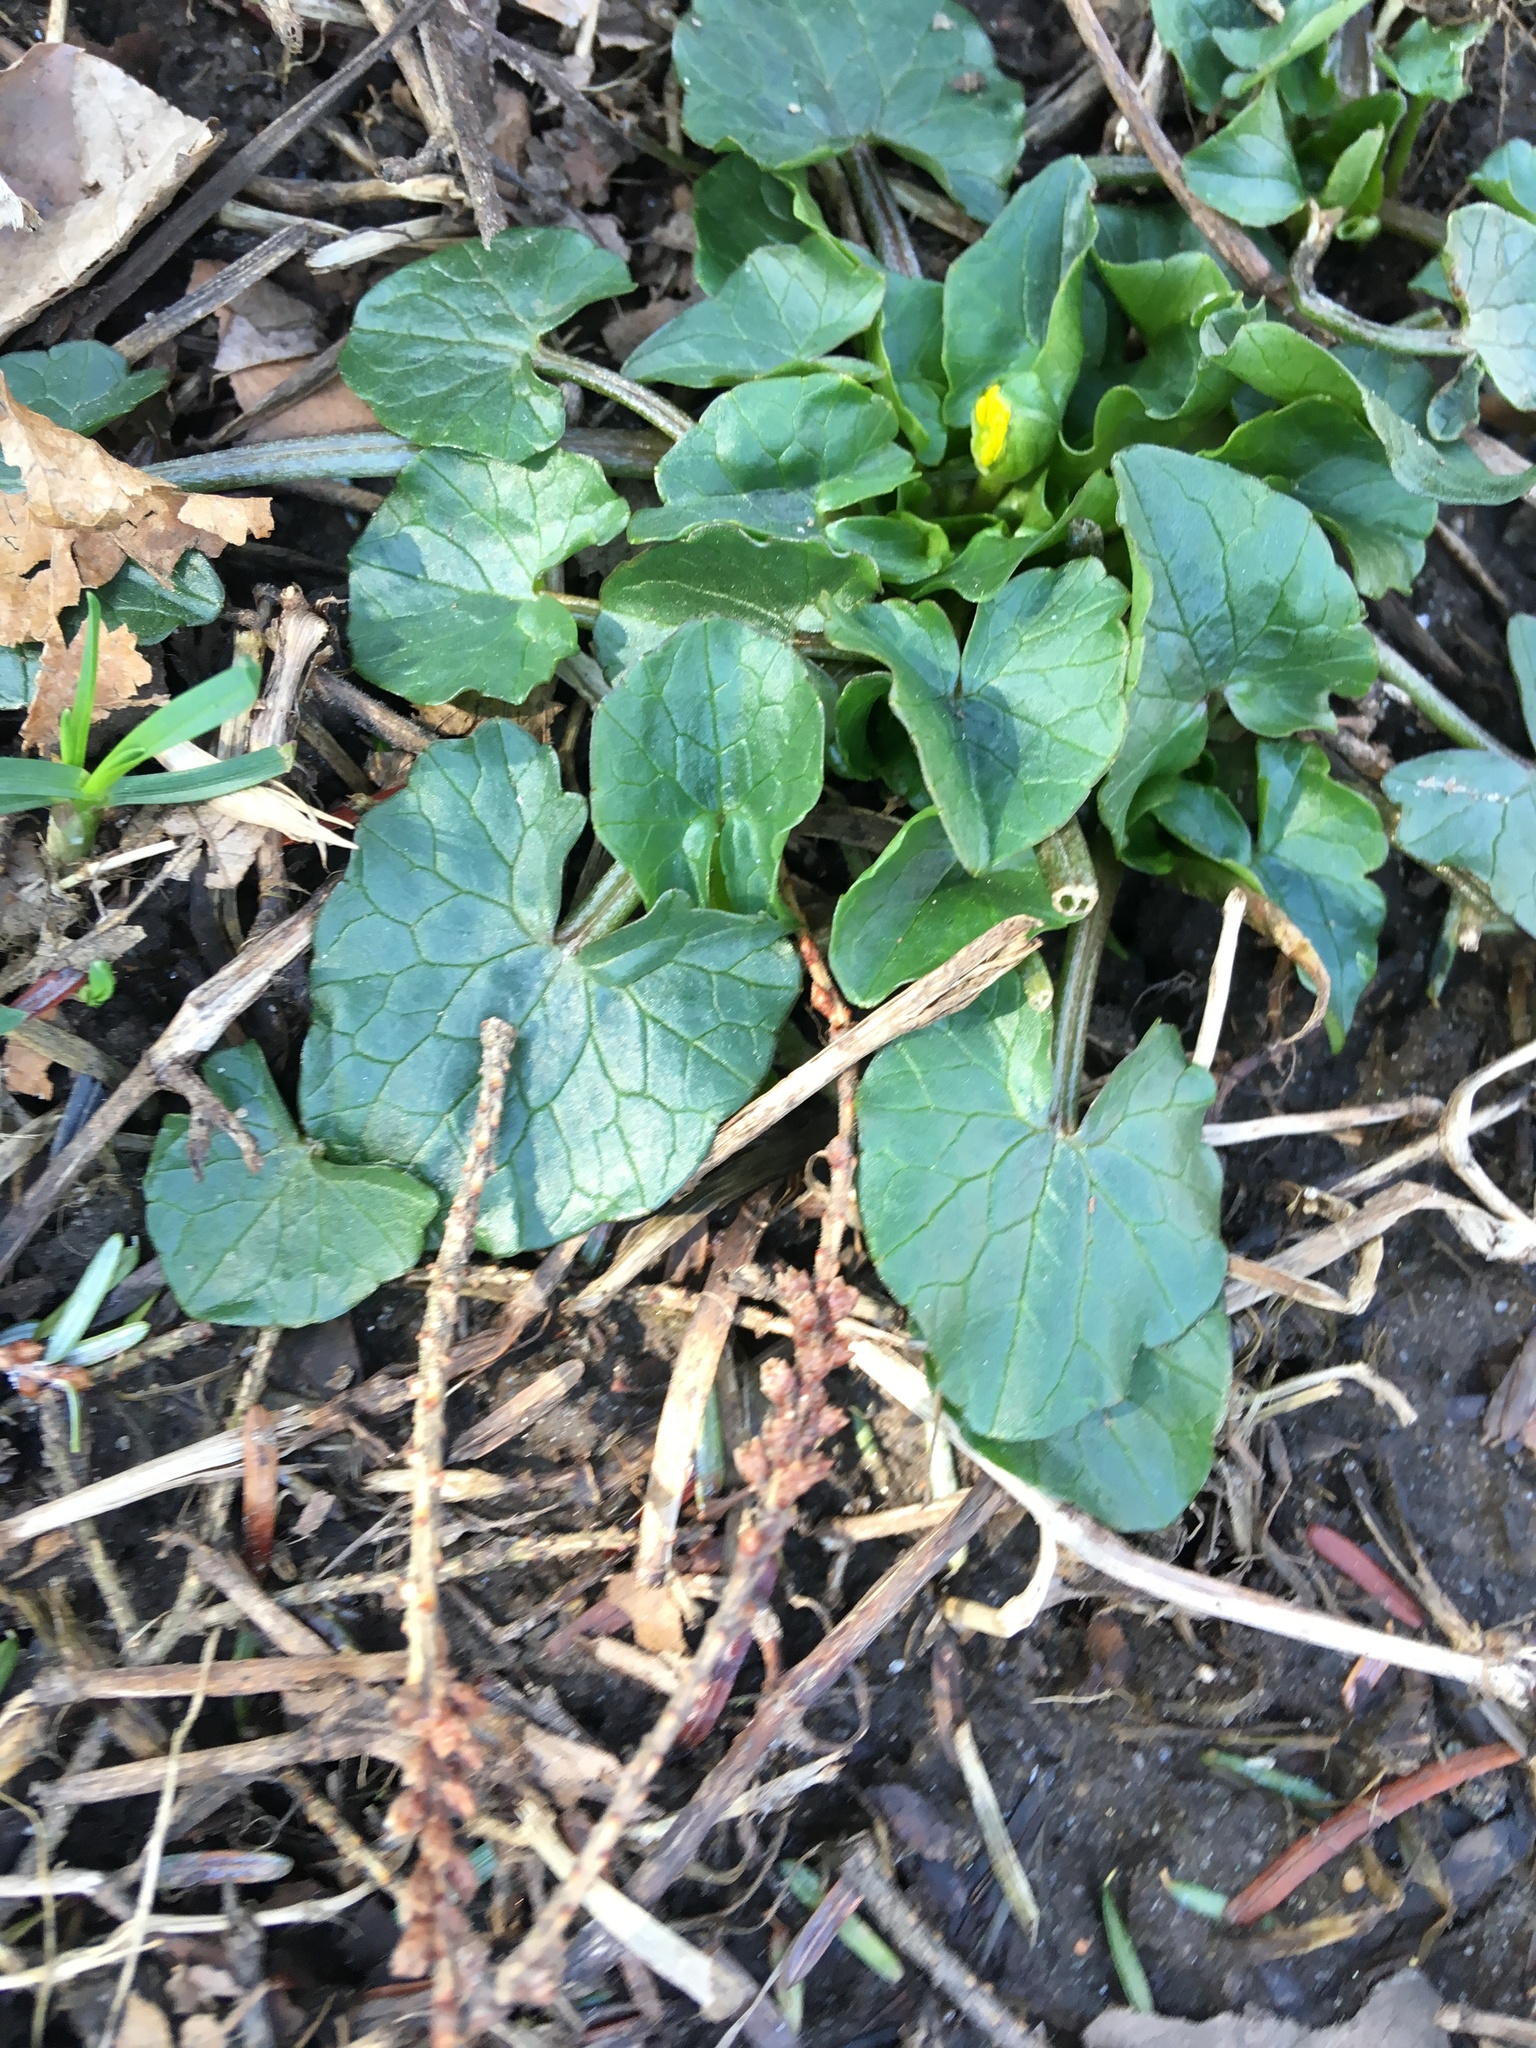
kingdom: Plantae
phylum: Tracheophyta
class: Magnoliopsida
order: Ranunculales
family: Ranunculaceae
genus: Ficaria
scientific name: Ficaria verna
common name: Lesser celandine
